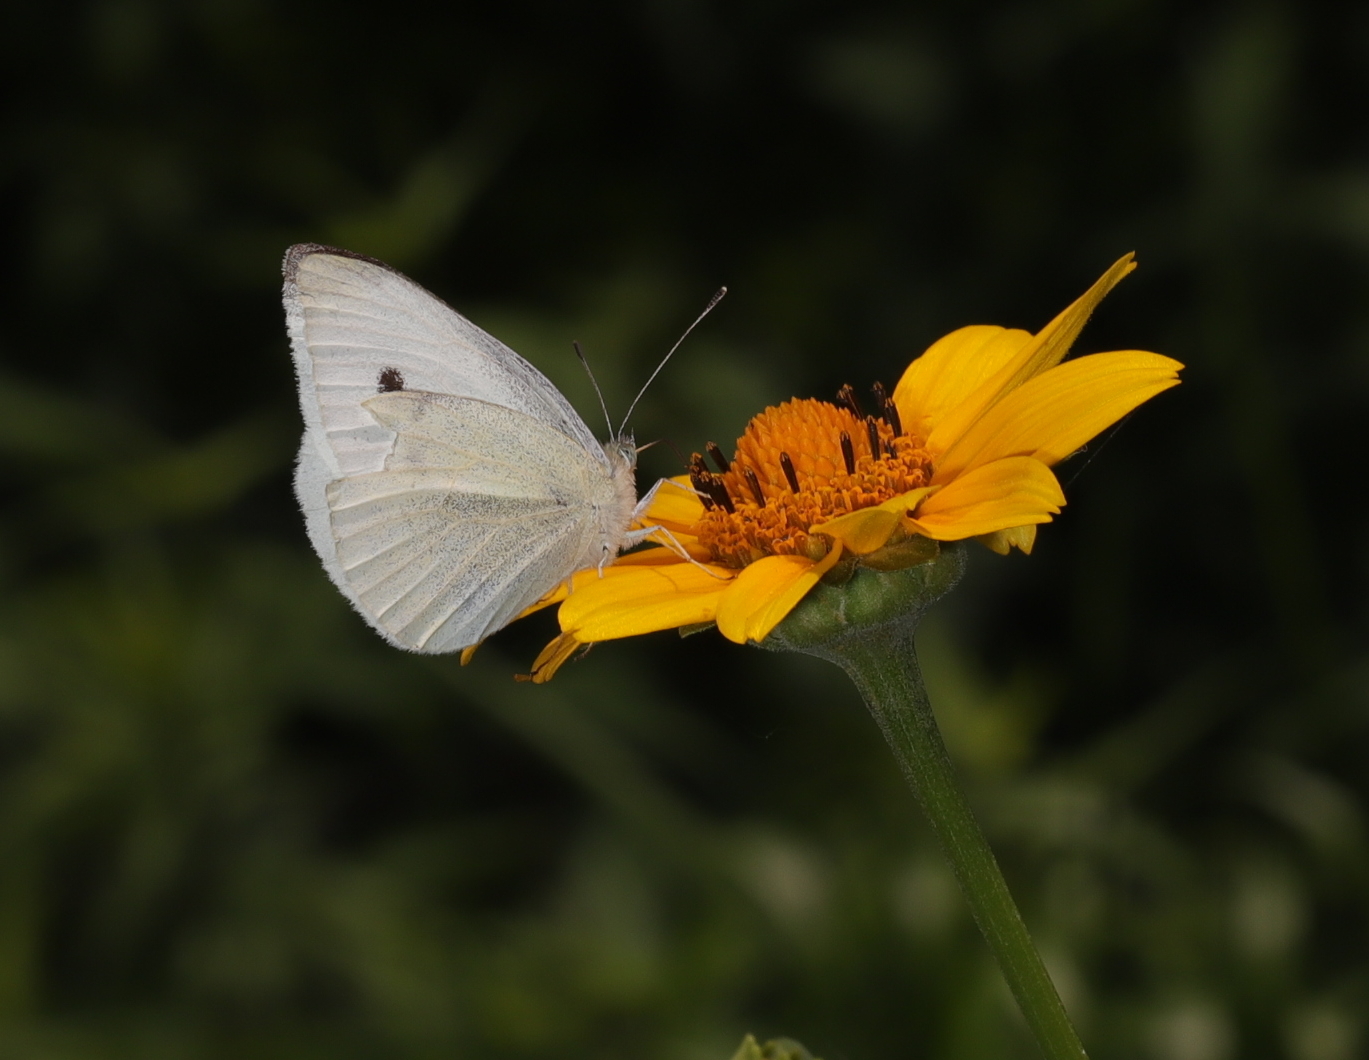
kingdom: Animalia
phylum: Arthropoda
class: Insecta
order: Lepidoptera
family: Pieridae
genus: Pieris
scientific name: Pieris rapae
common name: Small white
